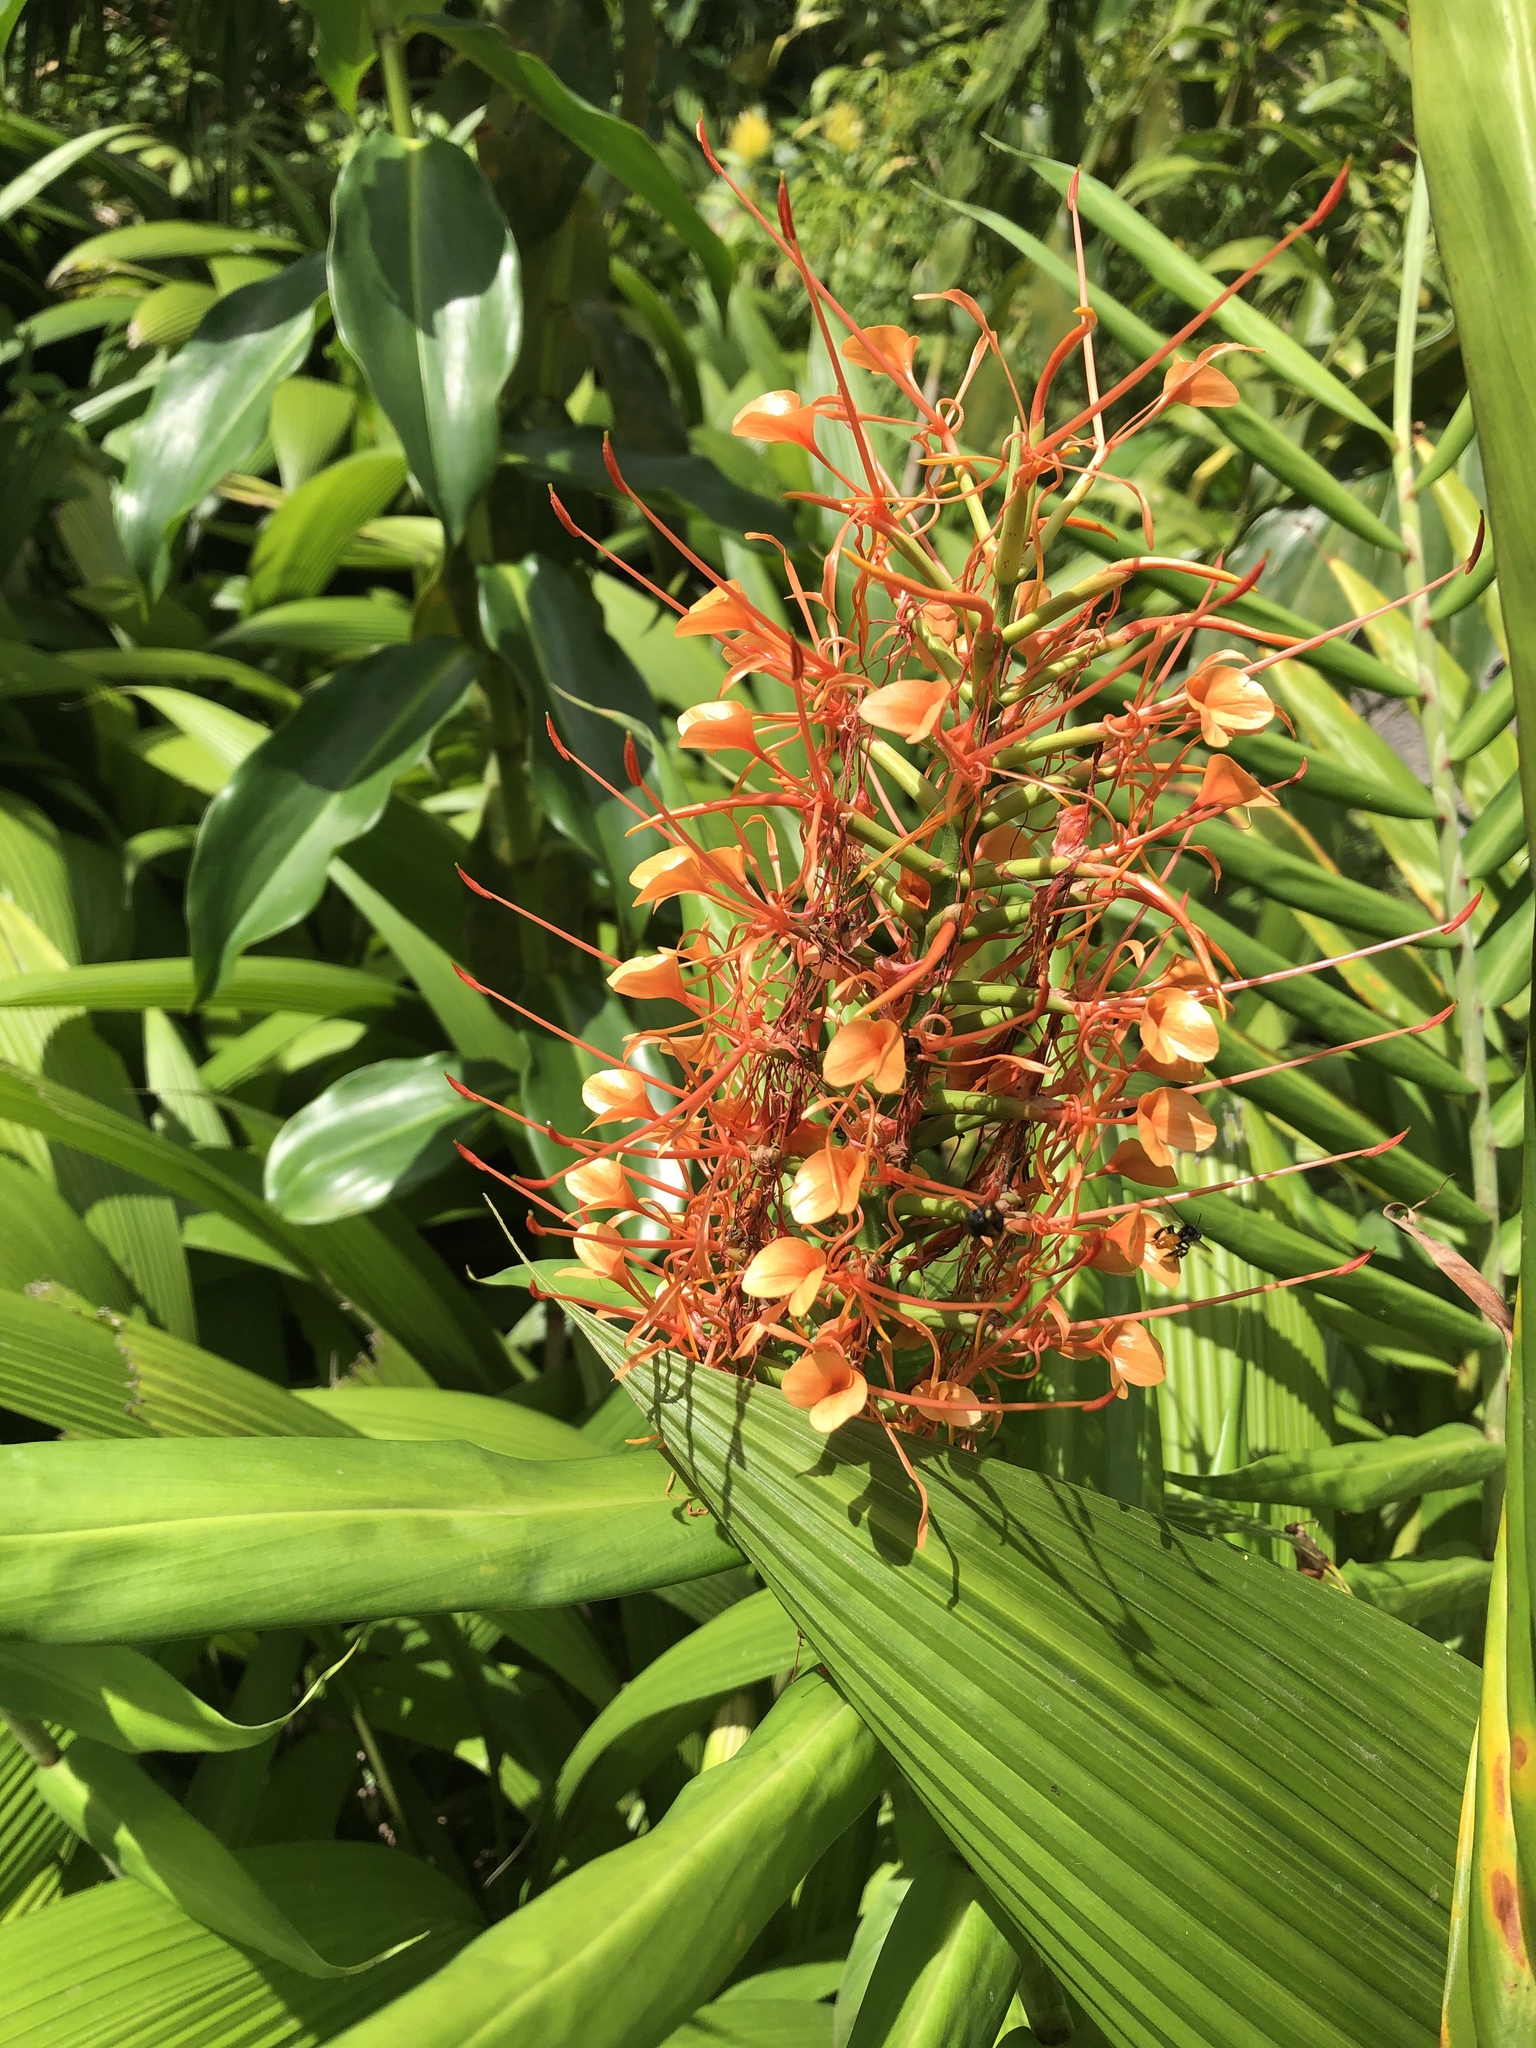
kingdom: Plantae
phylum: Tracheophyta
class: Liliopsida
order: Zingiberales
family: Zingiberaceae
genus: Hedychium
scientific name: Hedychium coccineum
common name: Red ginger-lily
